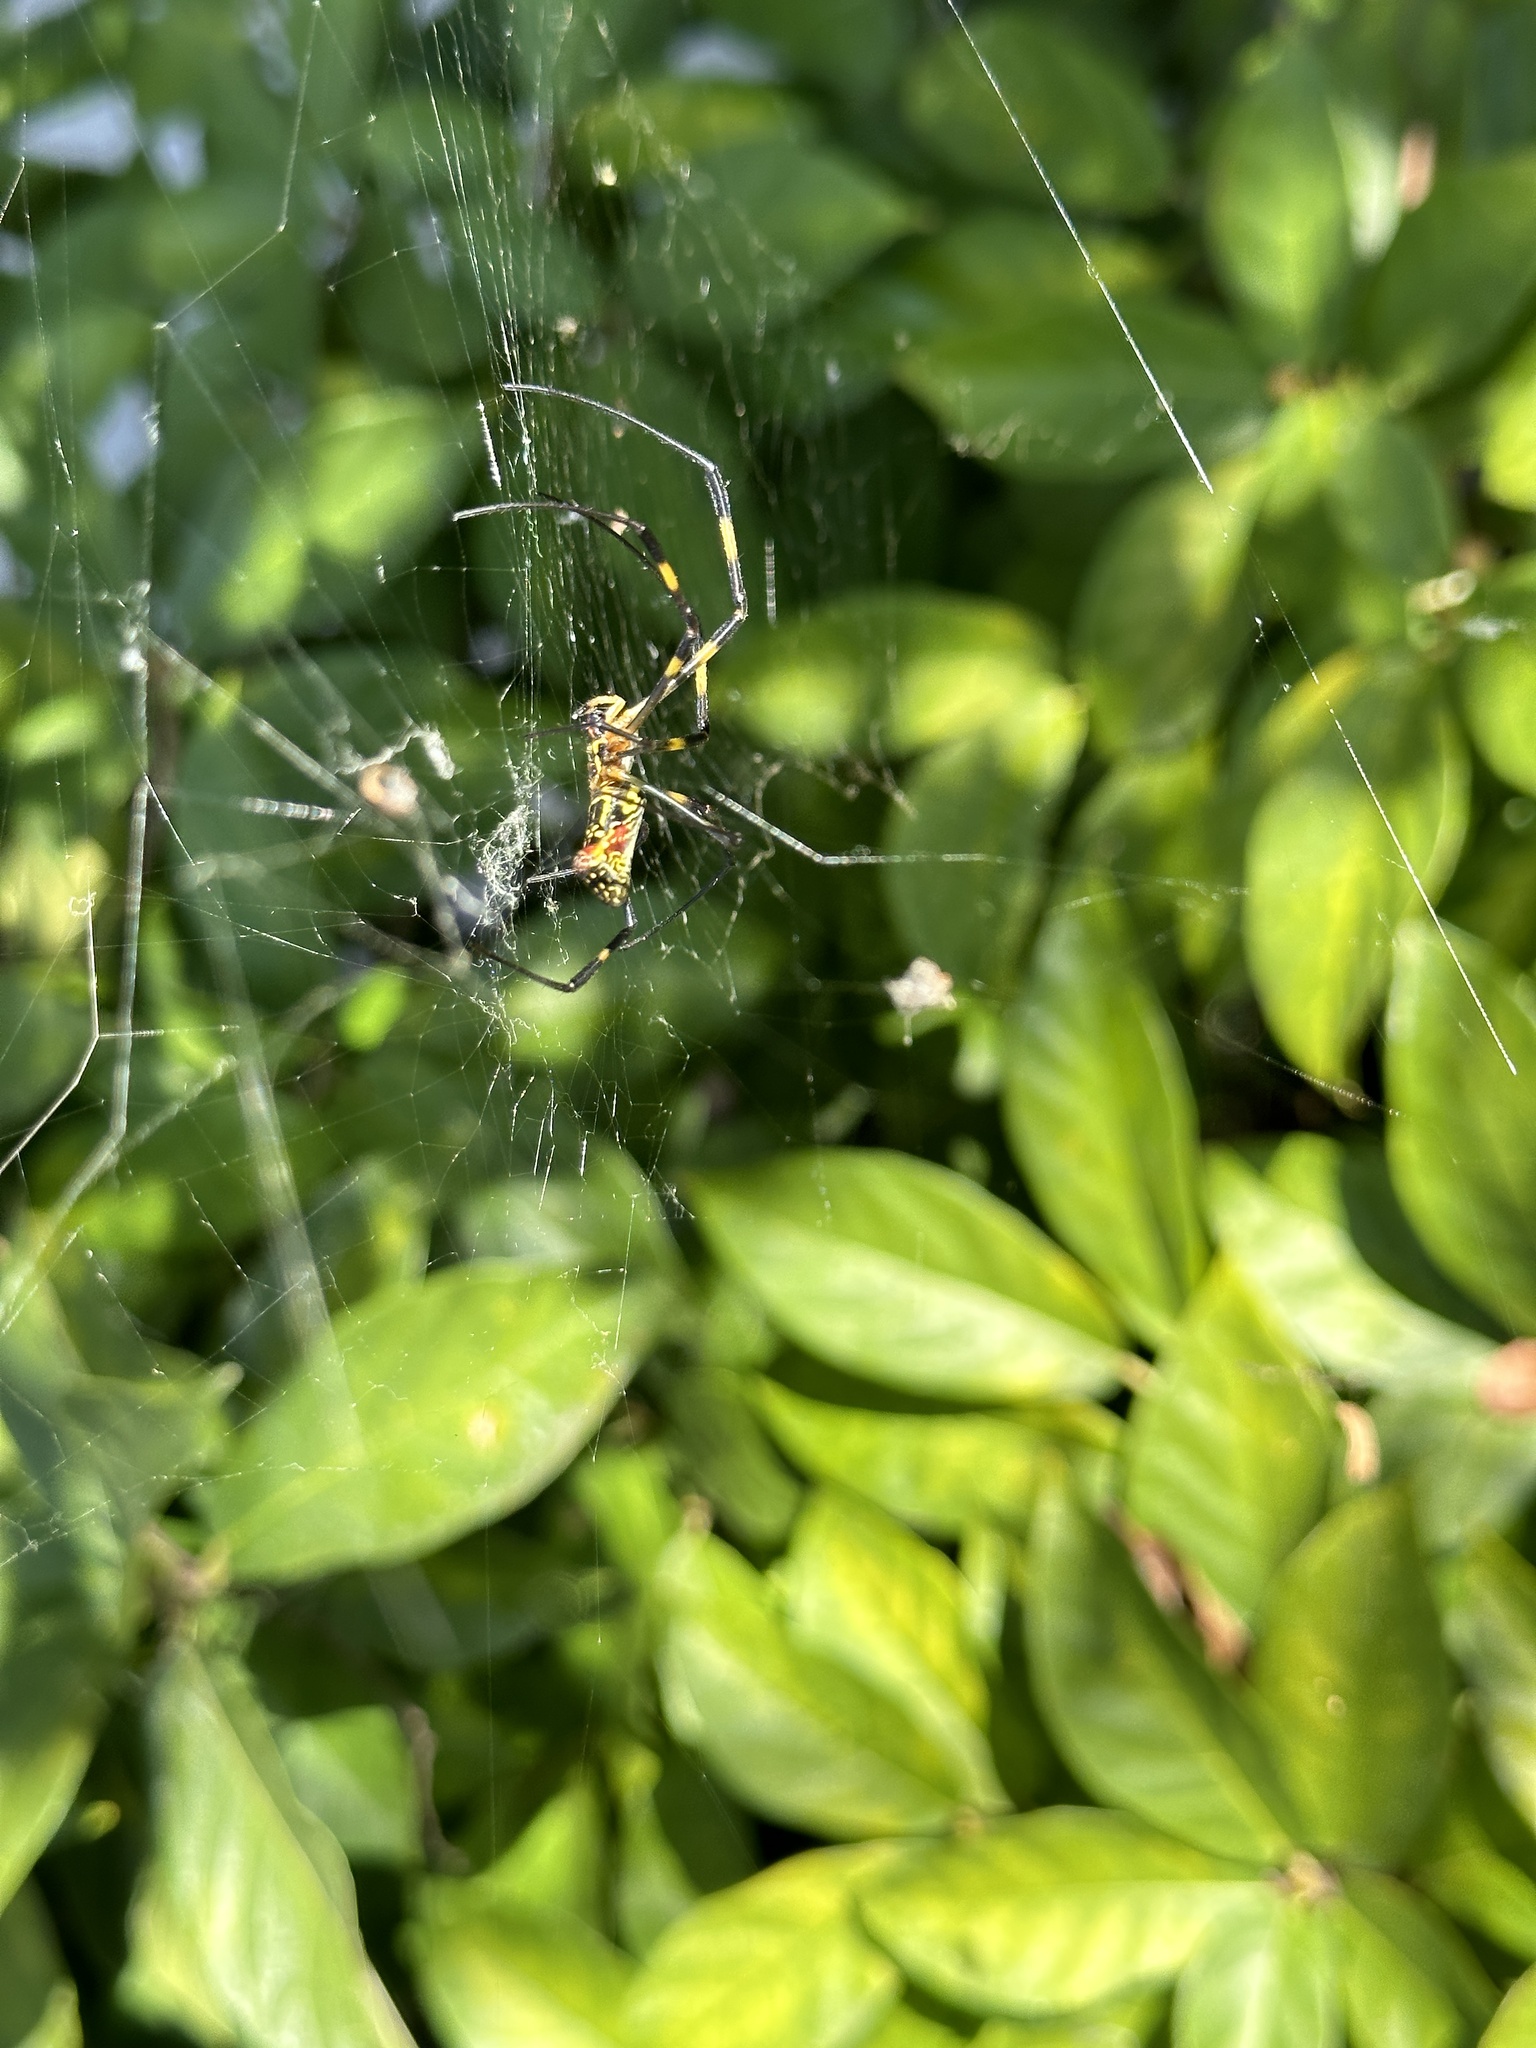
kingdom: Animalia
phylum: Arthropoda
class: Arachnida
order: Araneae
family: Araneidae
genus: Trichonephila
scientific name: Trichonephila clavata
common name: Jorō spider
